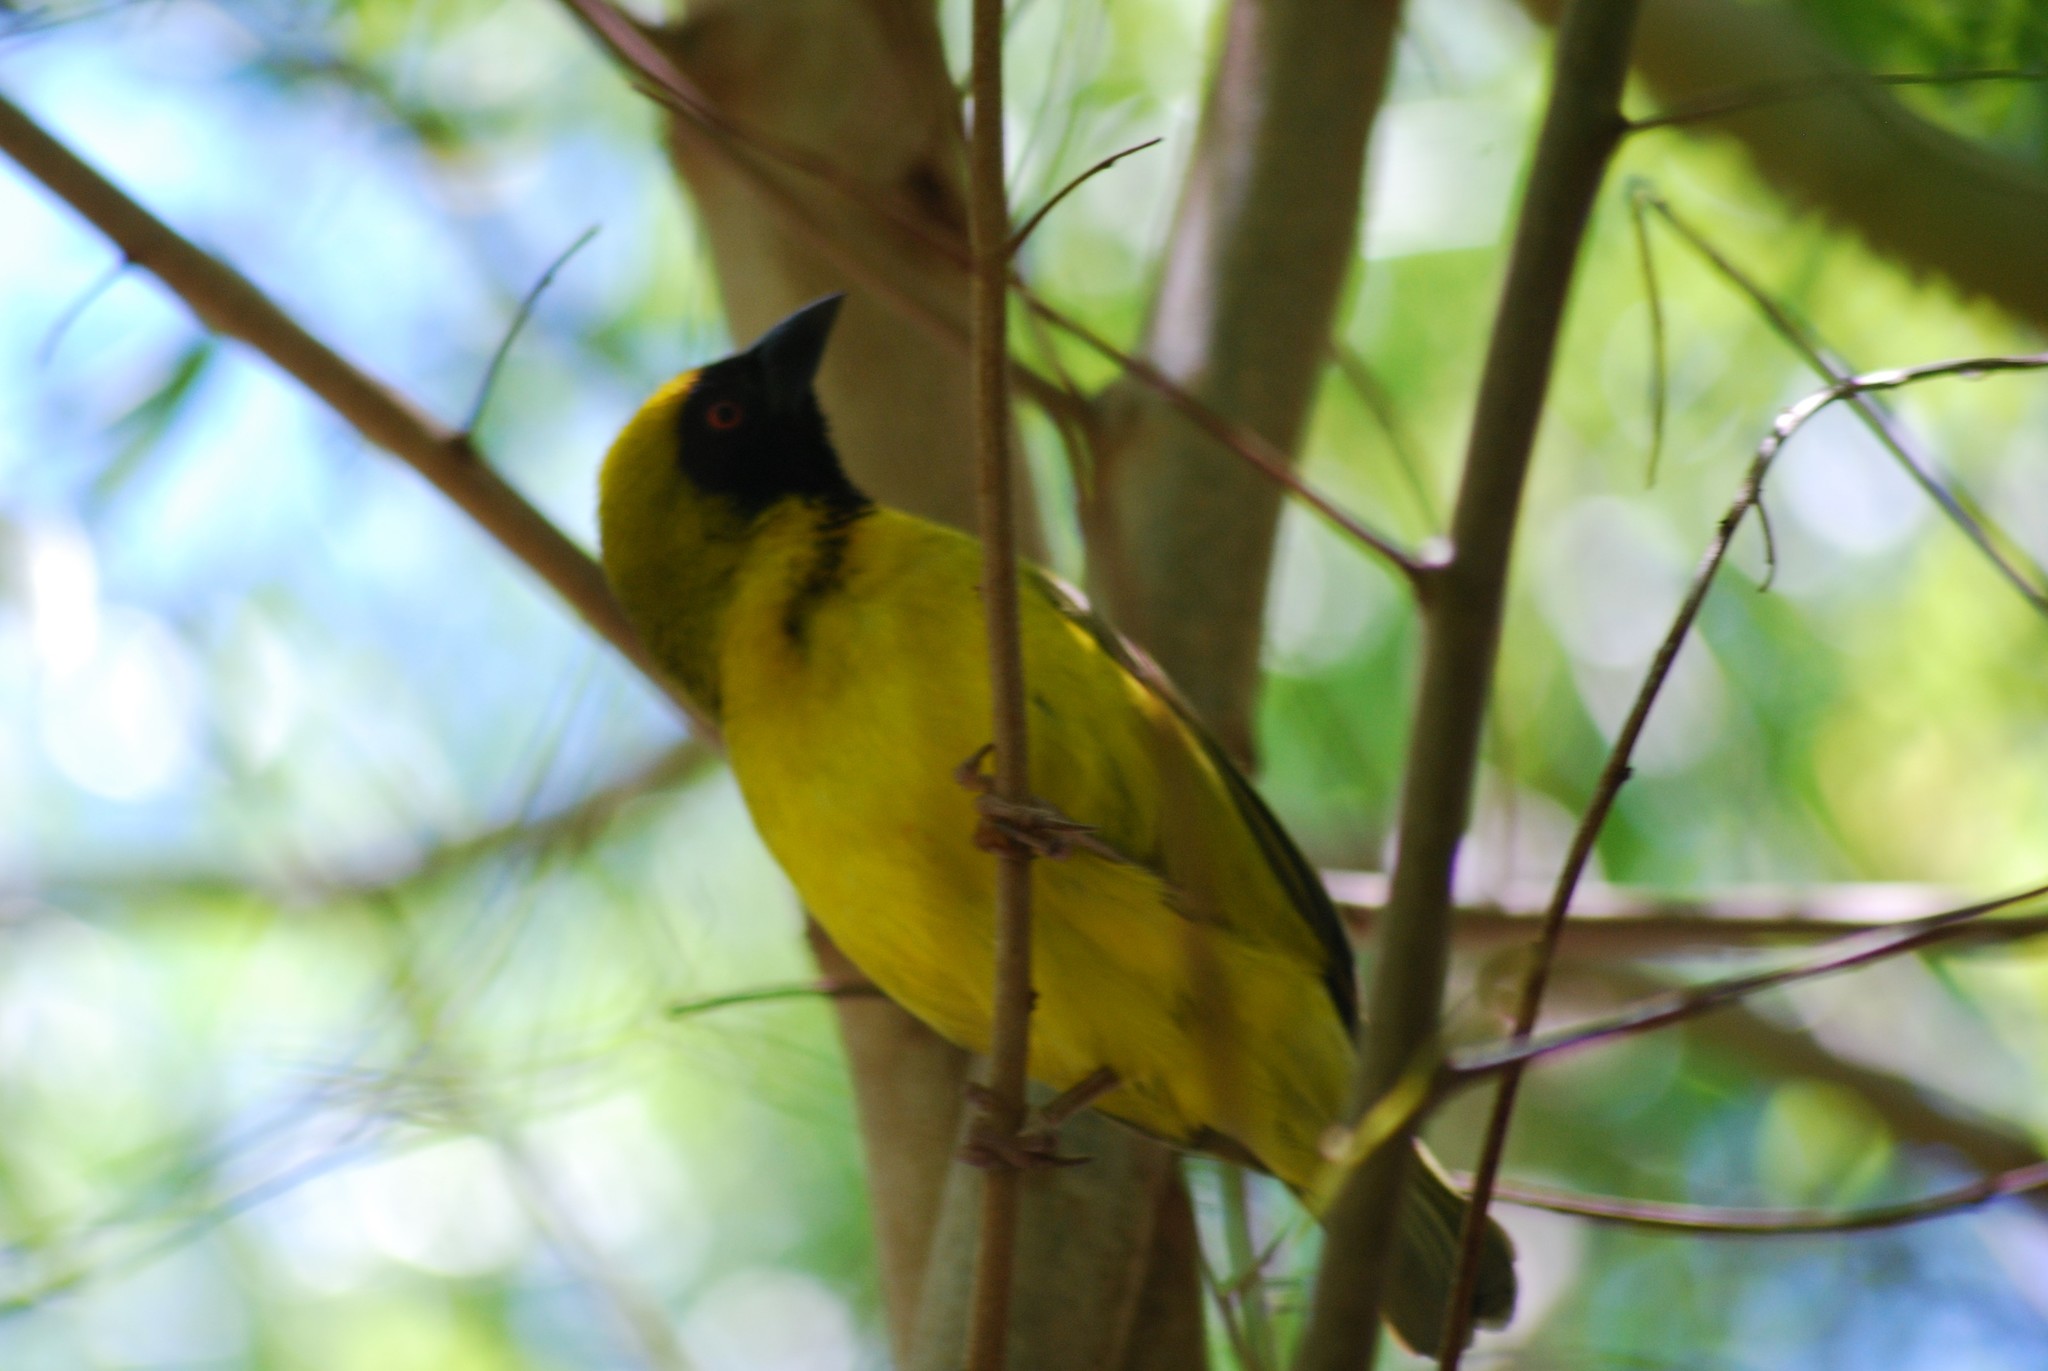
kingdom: Animalia
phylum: Chordata
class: Aves
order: Passeriformes
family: Ploceidae
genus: Ploceus
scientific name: Ploceus velatus
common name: Southern masked weaver
